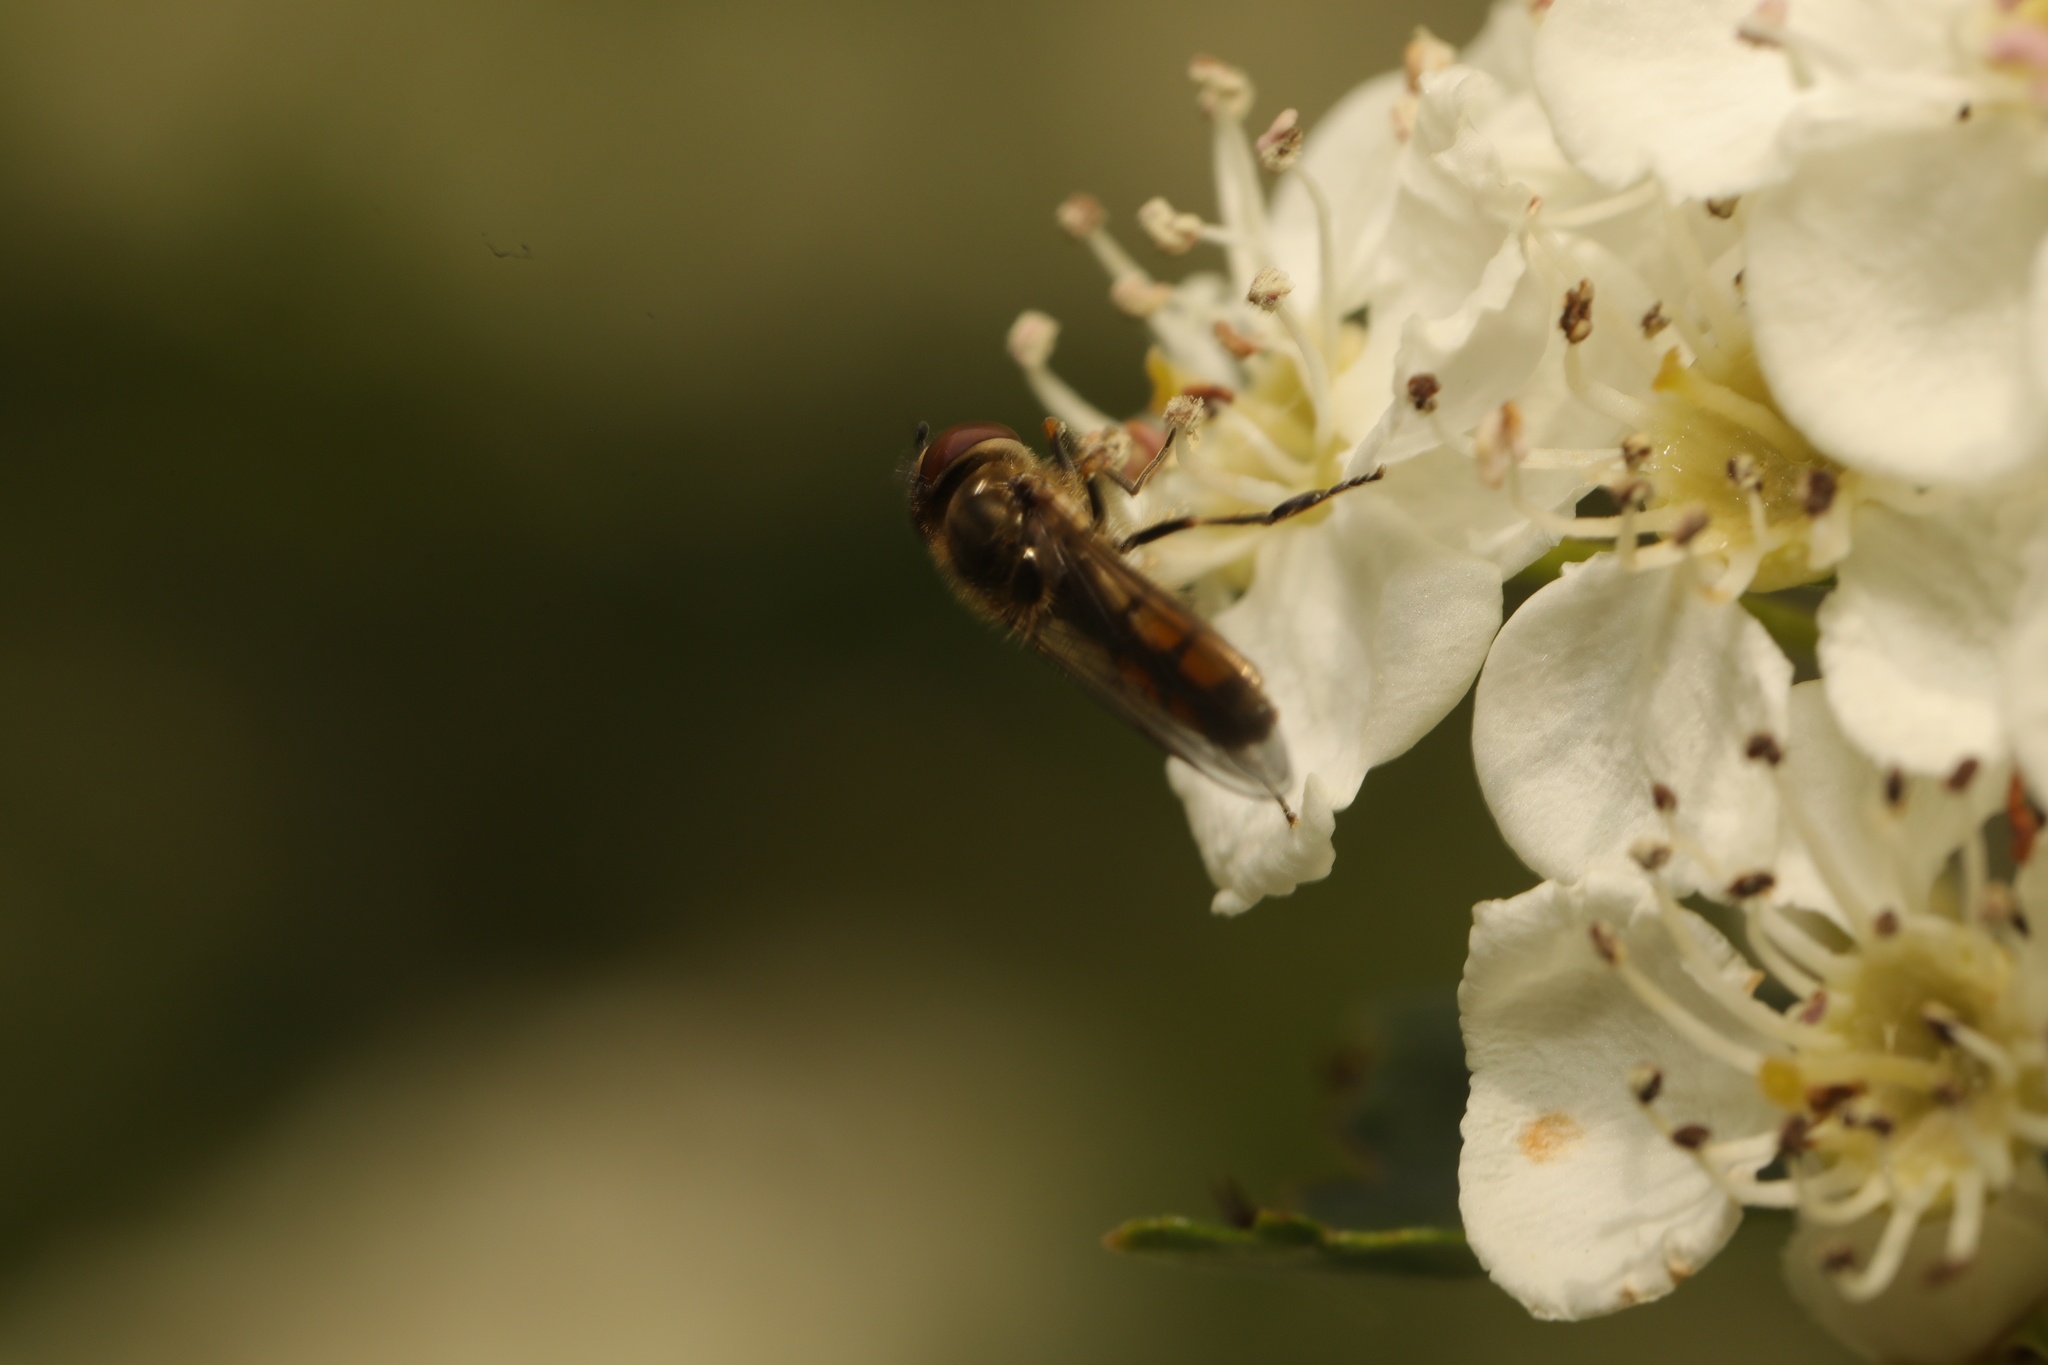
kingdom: Animalia
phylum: Arthropoda
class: Insecta
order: Diptera
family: Syrphidae
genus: Platycheirus
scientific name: Platycheirus manicatus
